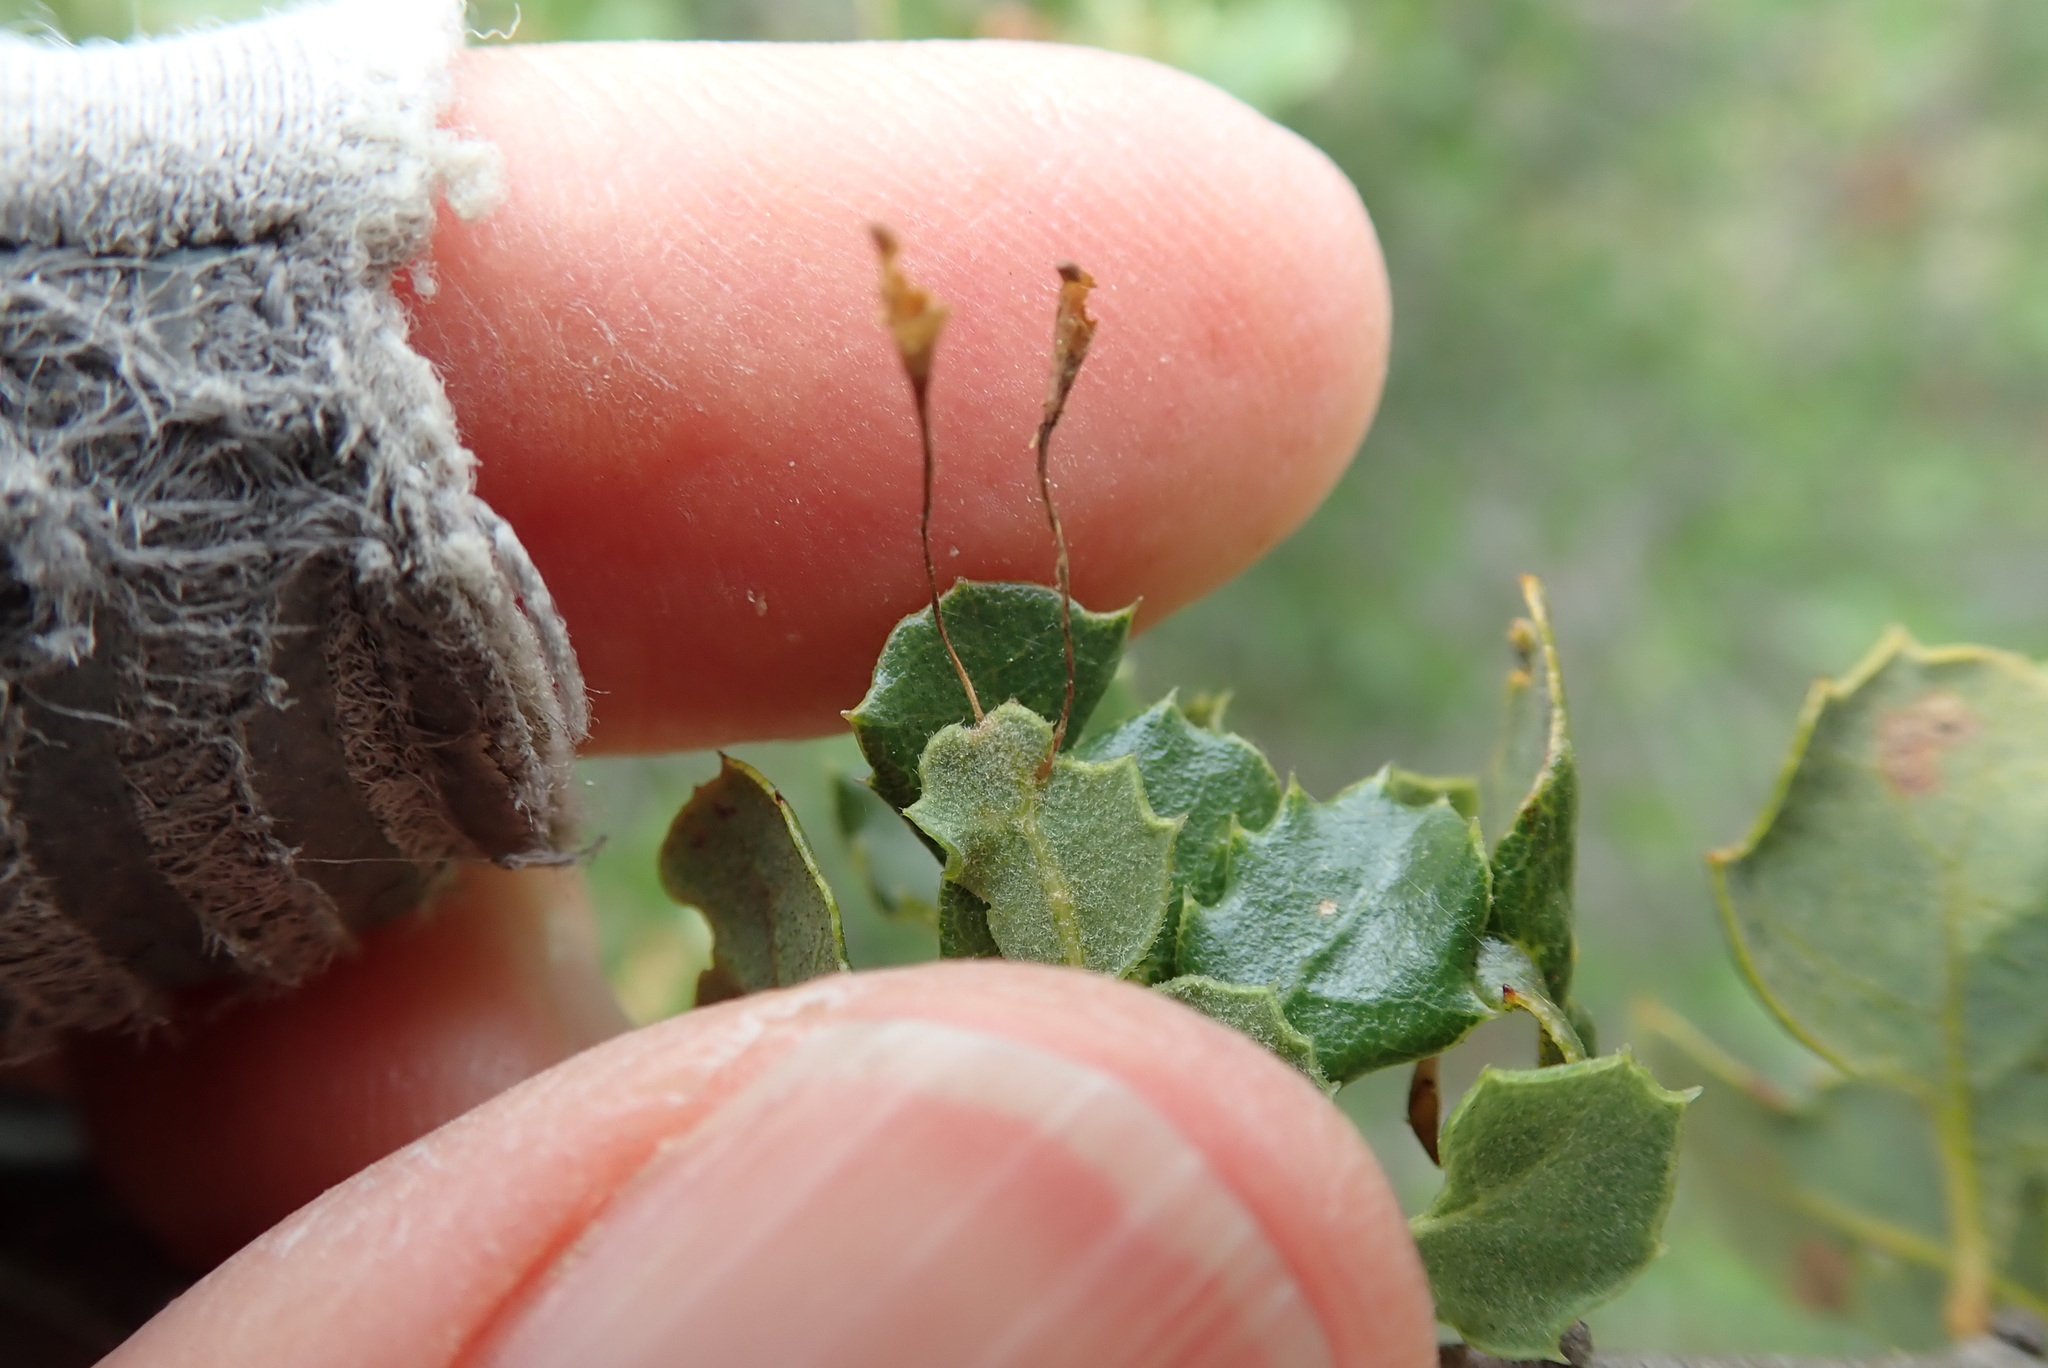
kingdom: Animalia
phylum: Arthropoda
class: Insecta
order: Hymenoptera
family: Cynipidae
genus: Andricus
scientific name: Andricus
